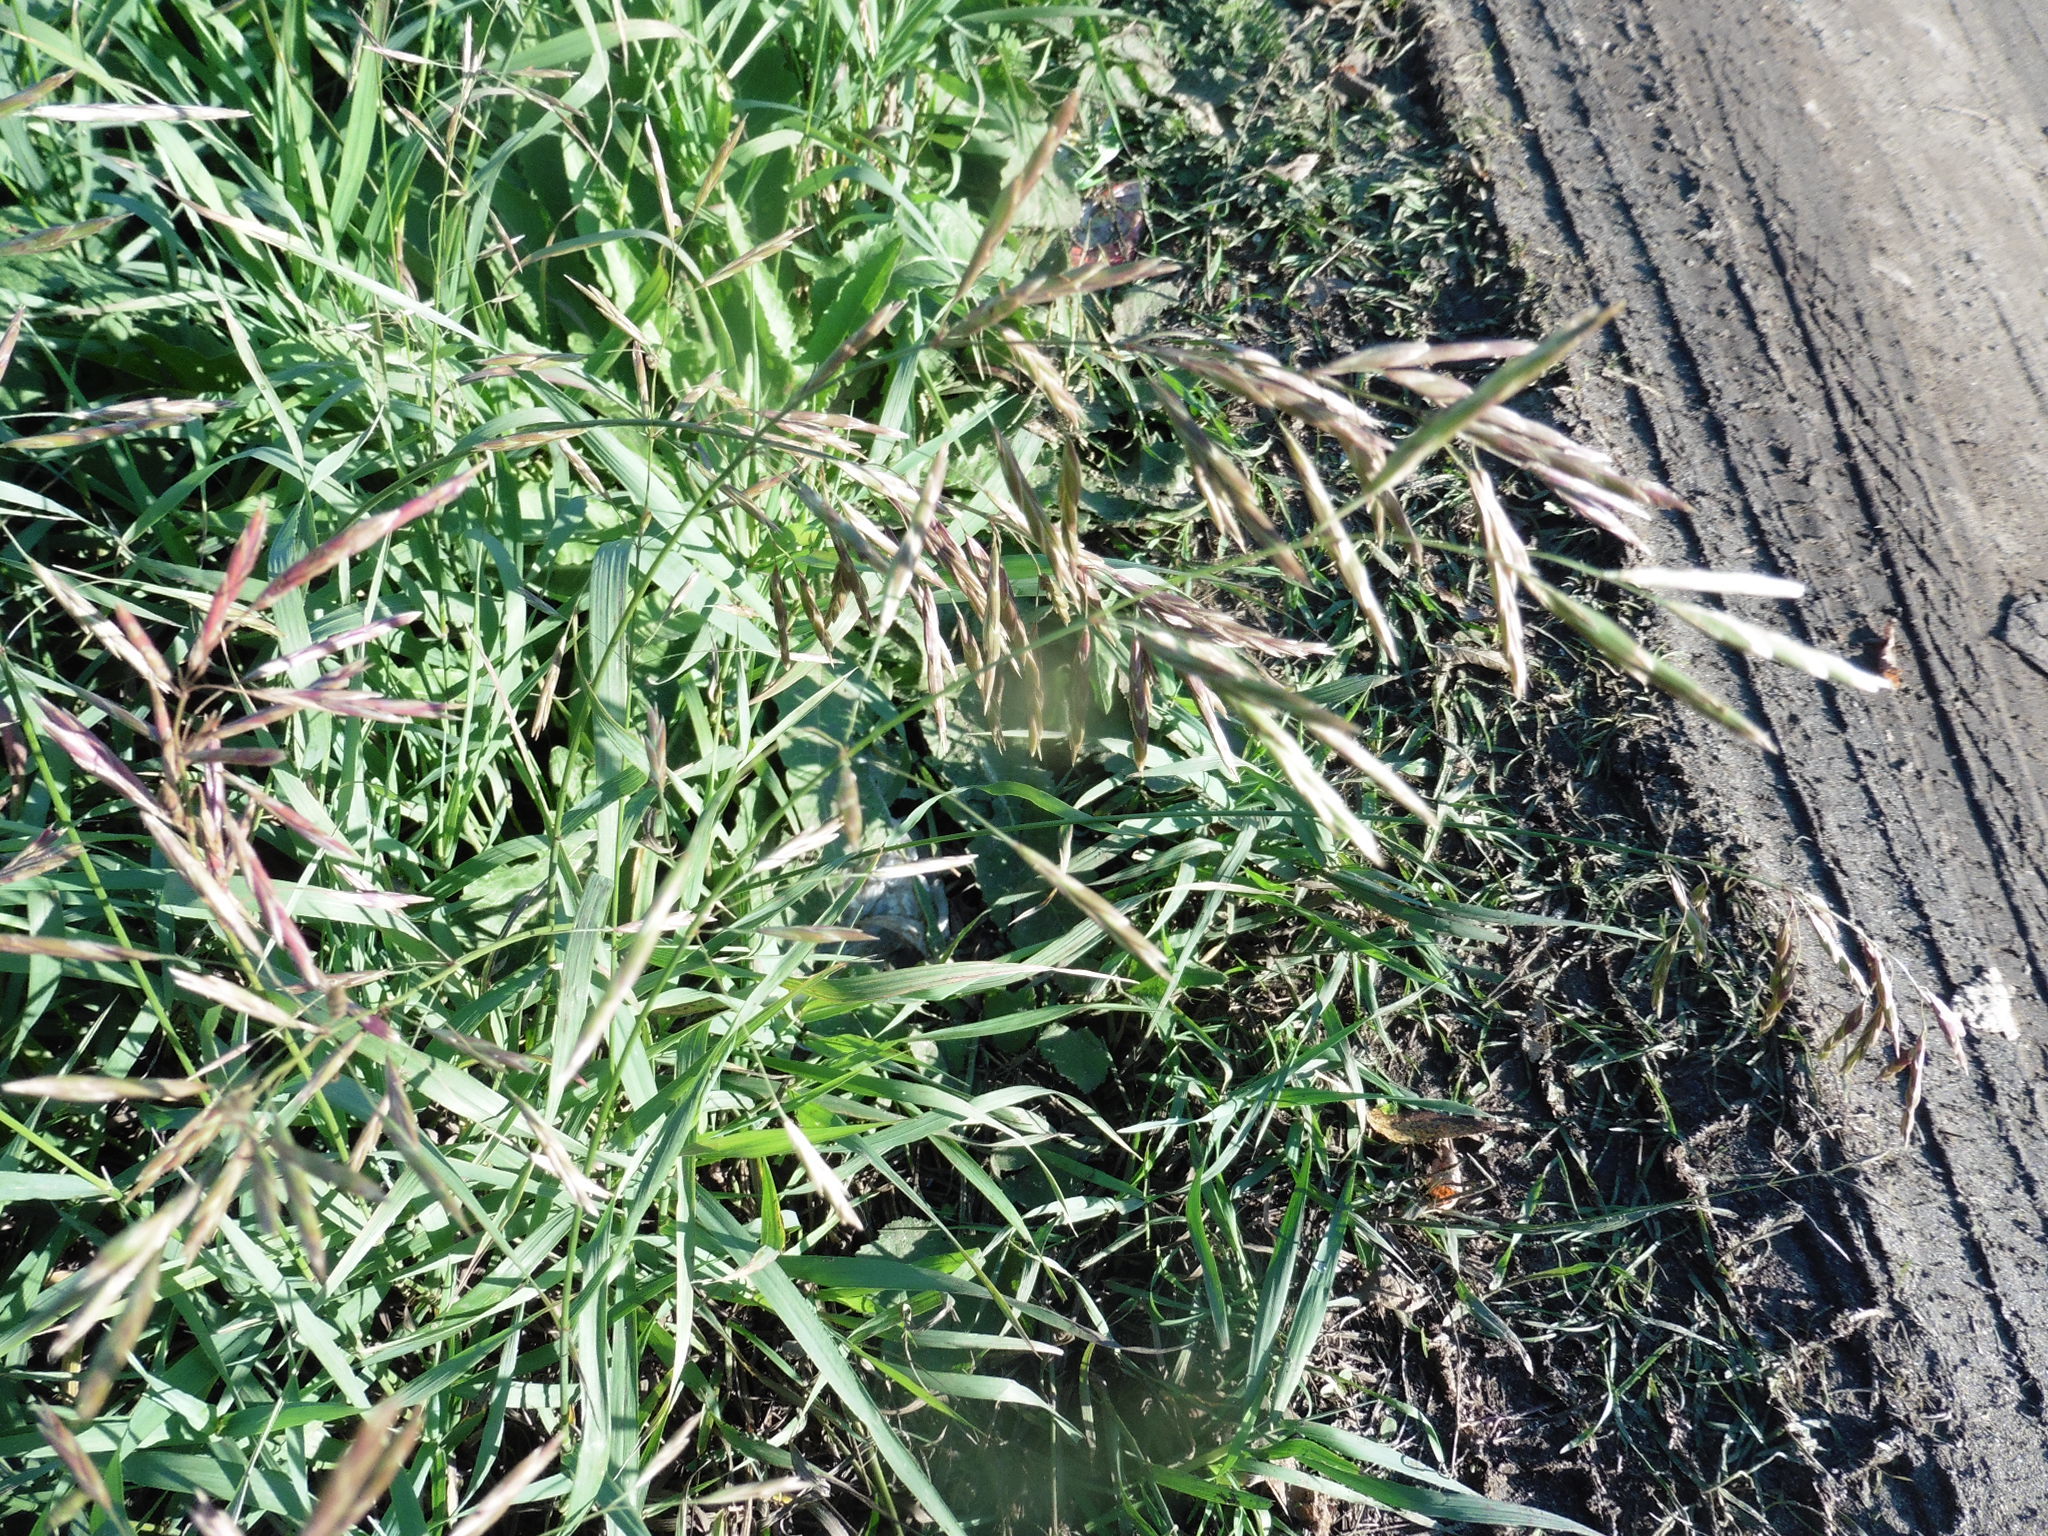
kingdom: Plantae
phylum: Tracheophyta
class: Liliopsida
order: Poales
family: Poaceae
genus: Bromus
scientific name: Bromus inermis
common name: Smooth brome
